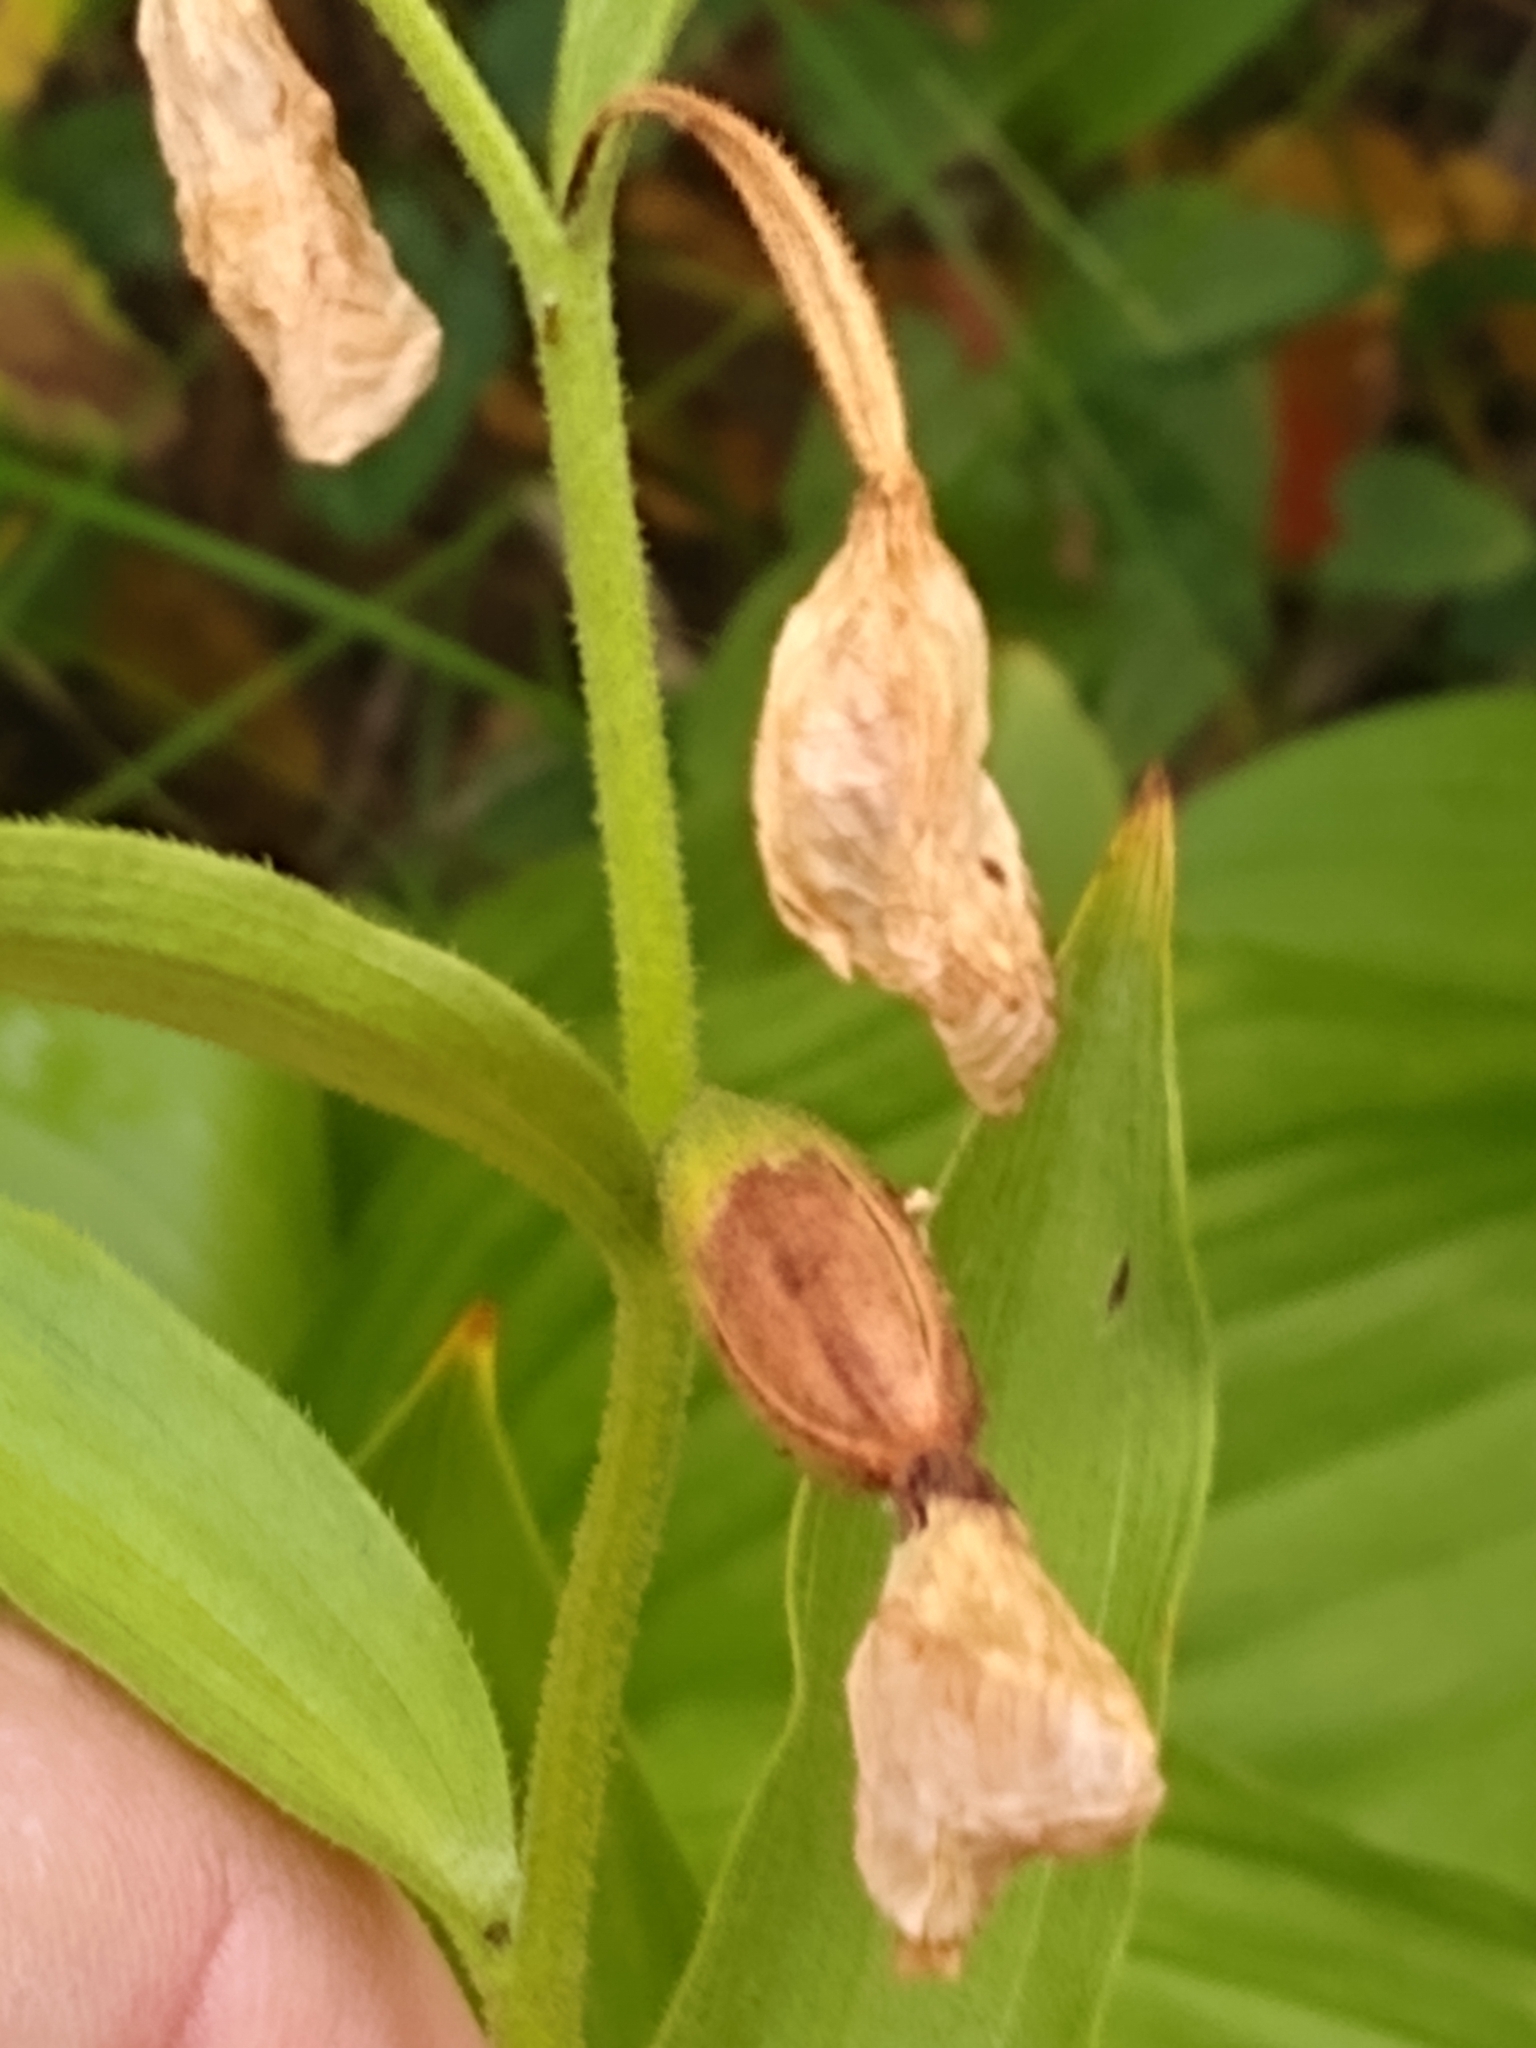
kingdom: Plantae
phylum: Tracheophyta
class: Liliopsida
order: Asparagales
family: Orchidaceae
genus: Epipactis
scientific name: Epipactis gigantea
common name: Chatterbox
